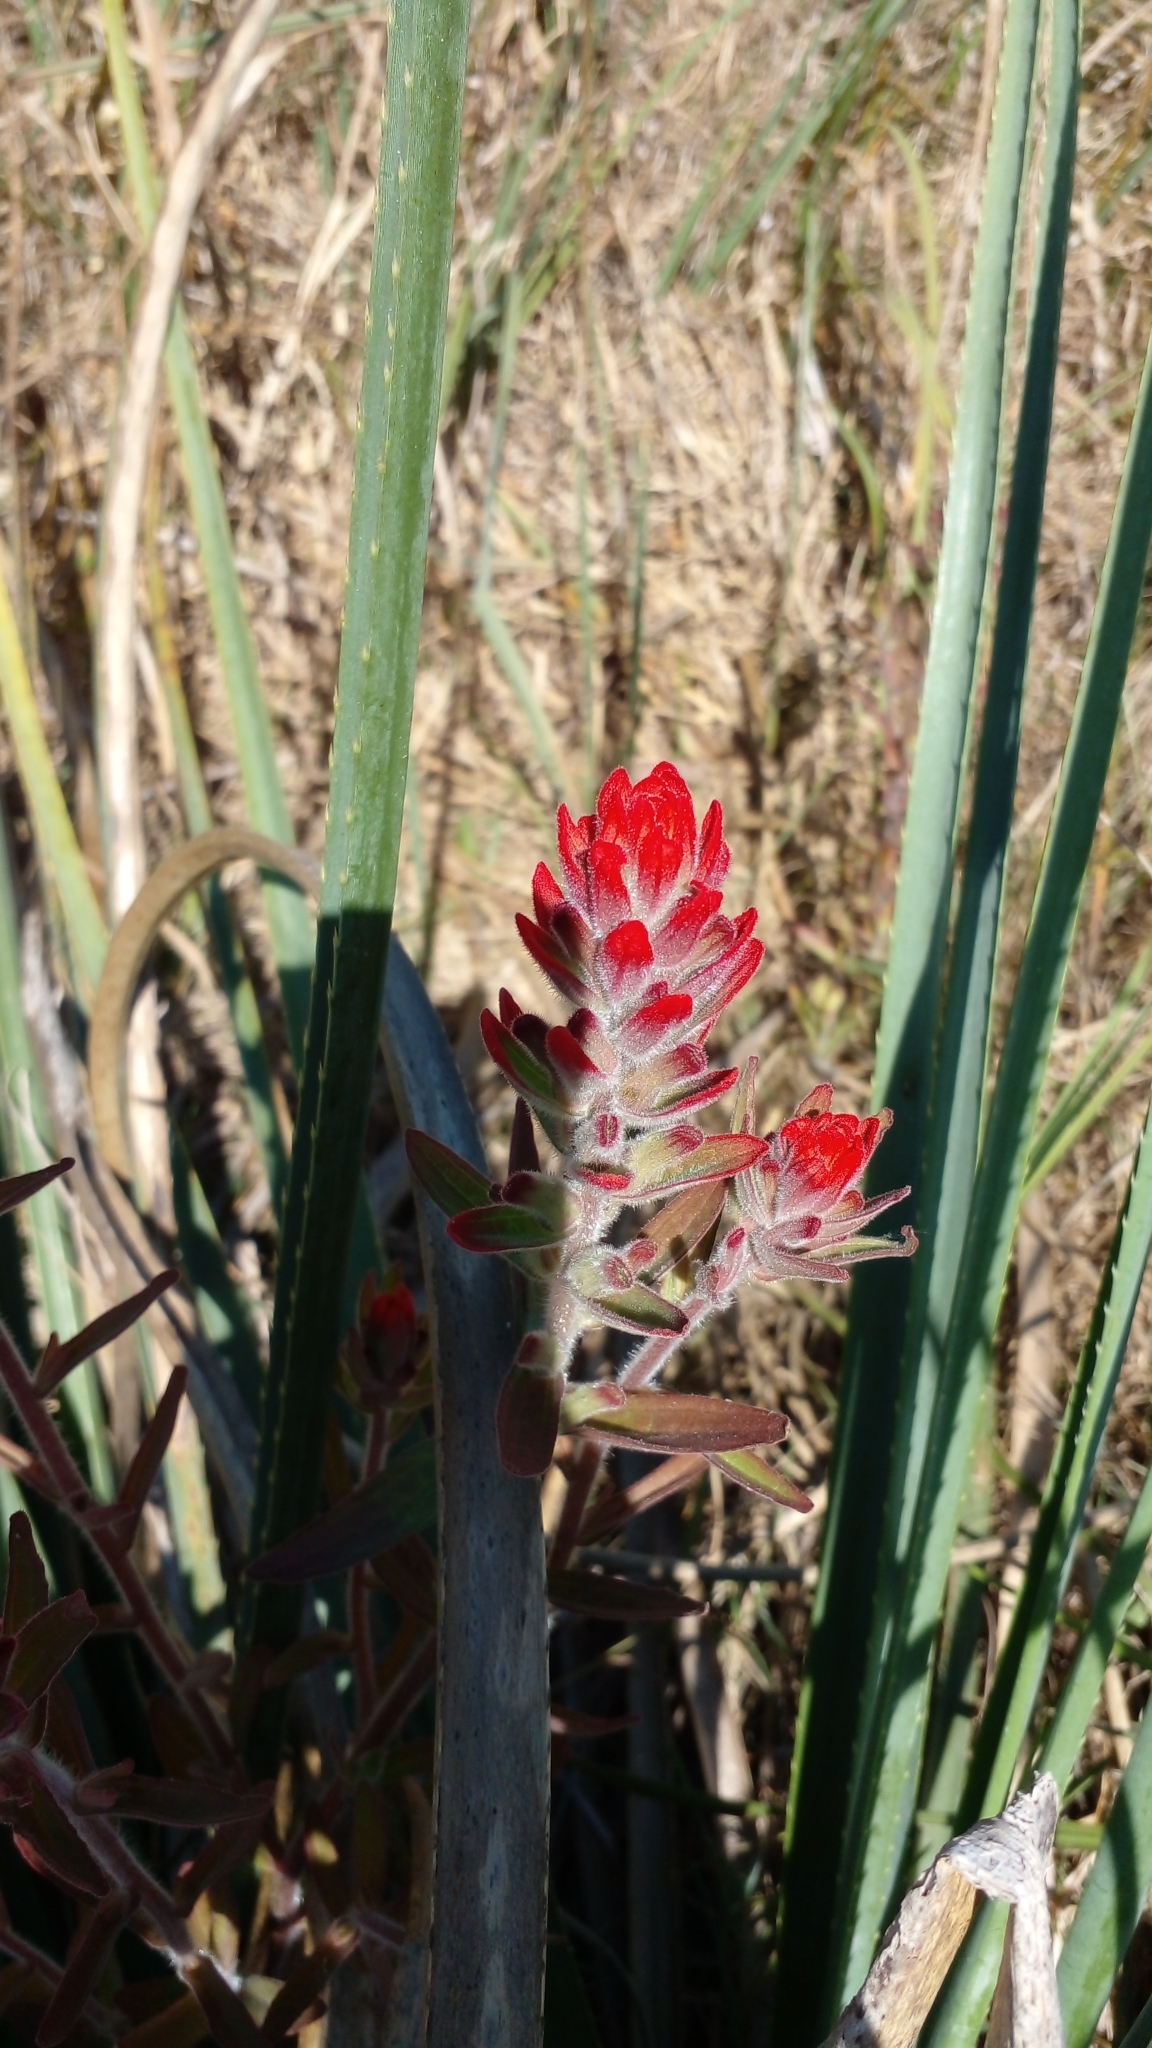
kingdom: Plantae
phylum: Tracheophyta
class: Magnoliopsida
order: Lamiales
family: Orobanchaceae
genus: Castilleja
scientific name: Castilleja arvensis
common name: Indian paintbrush
